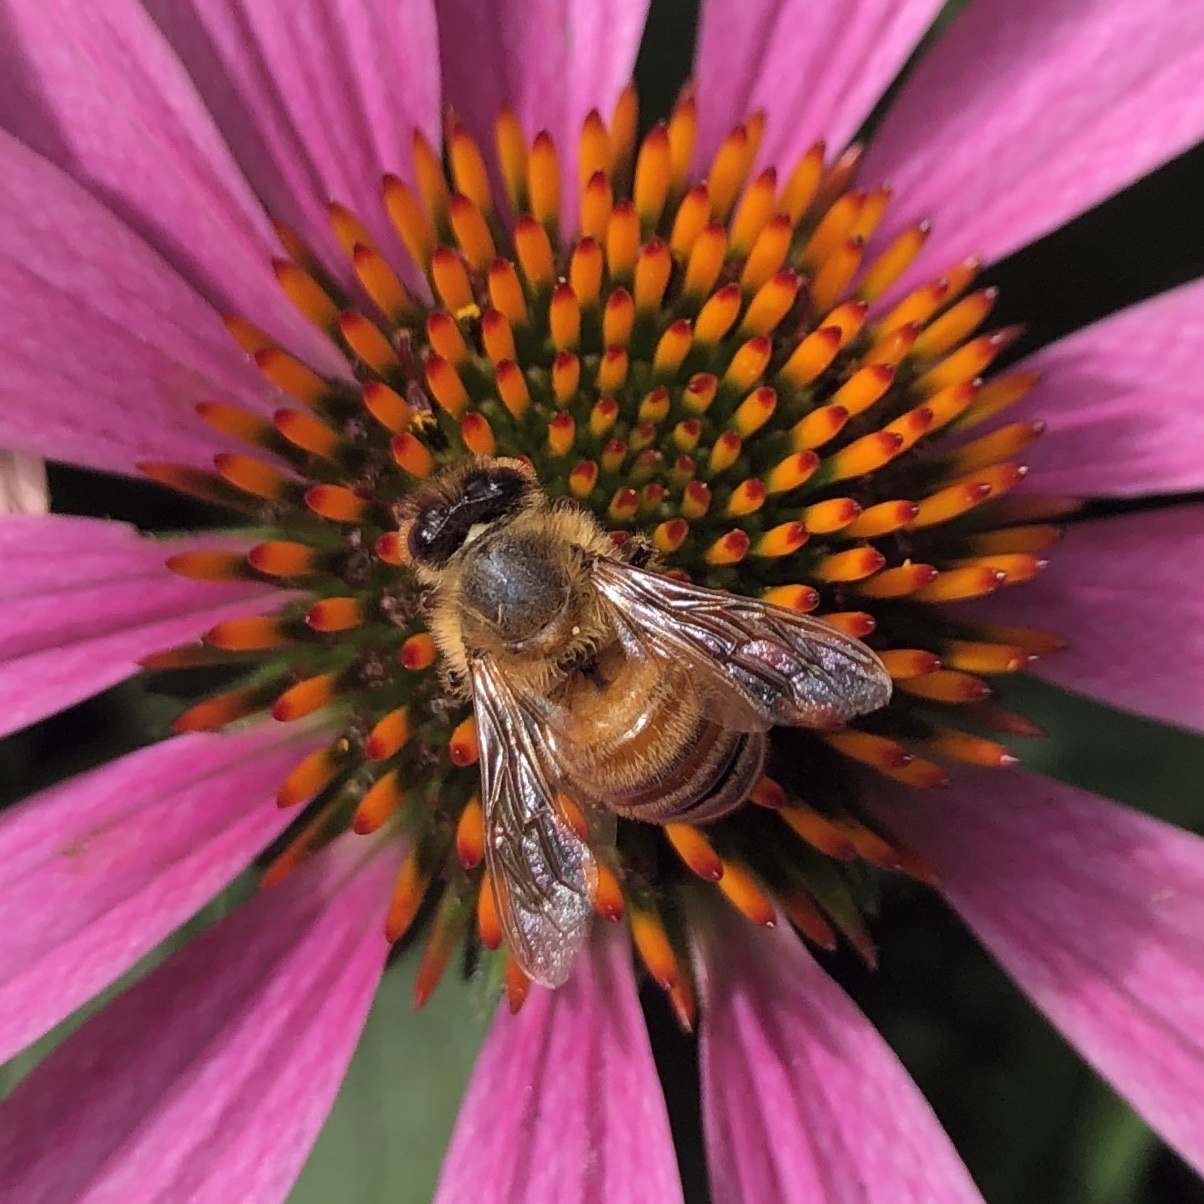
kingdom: Animalia
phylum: Arthropoda
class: Insecta
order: Hymenoptera
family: Apidae
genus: Apis
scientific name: Apis mellifera
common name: Honey bee
